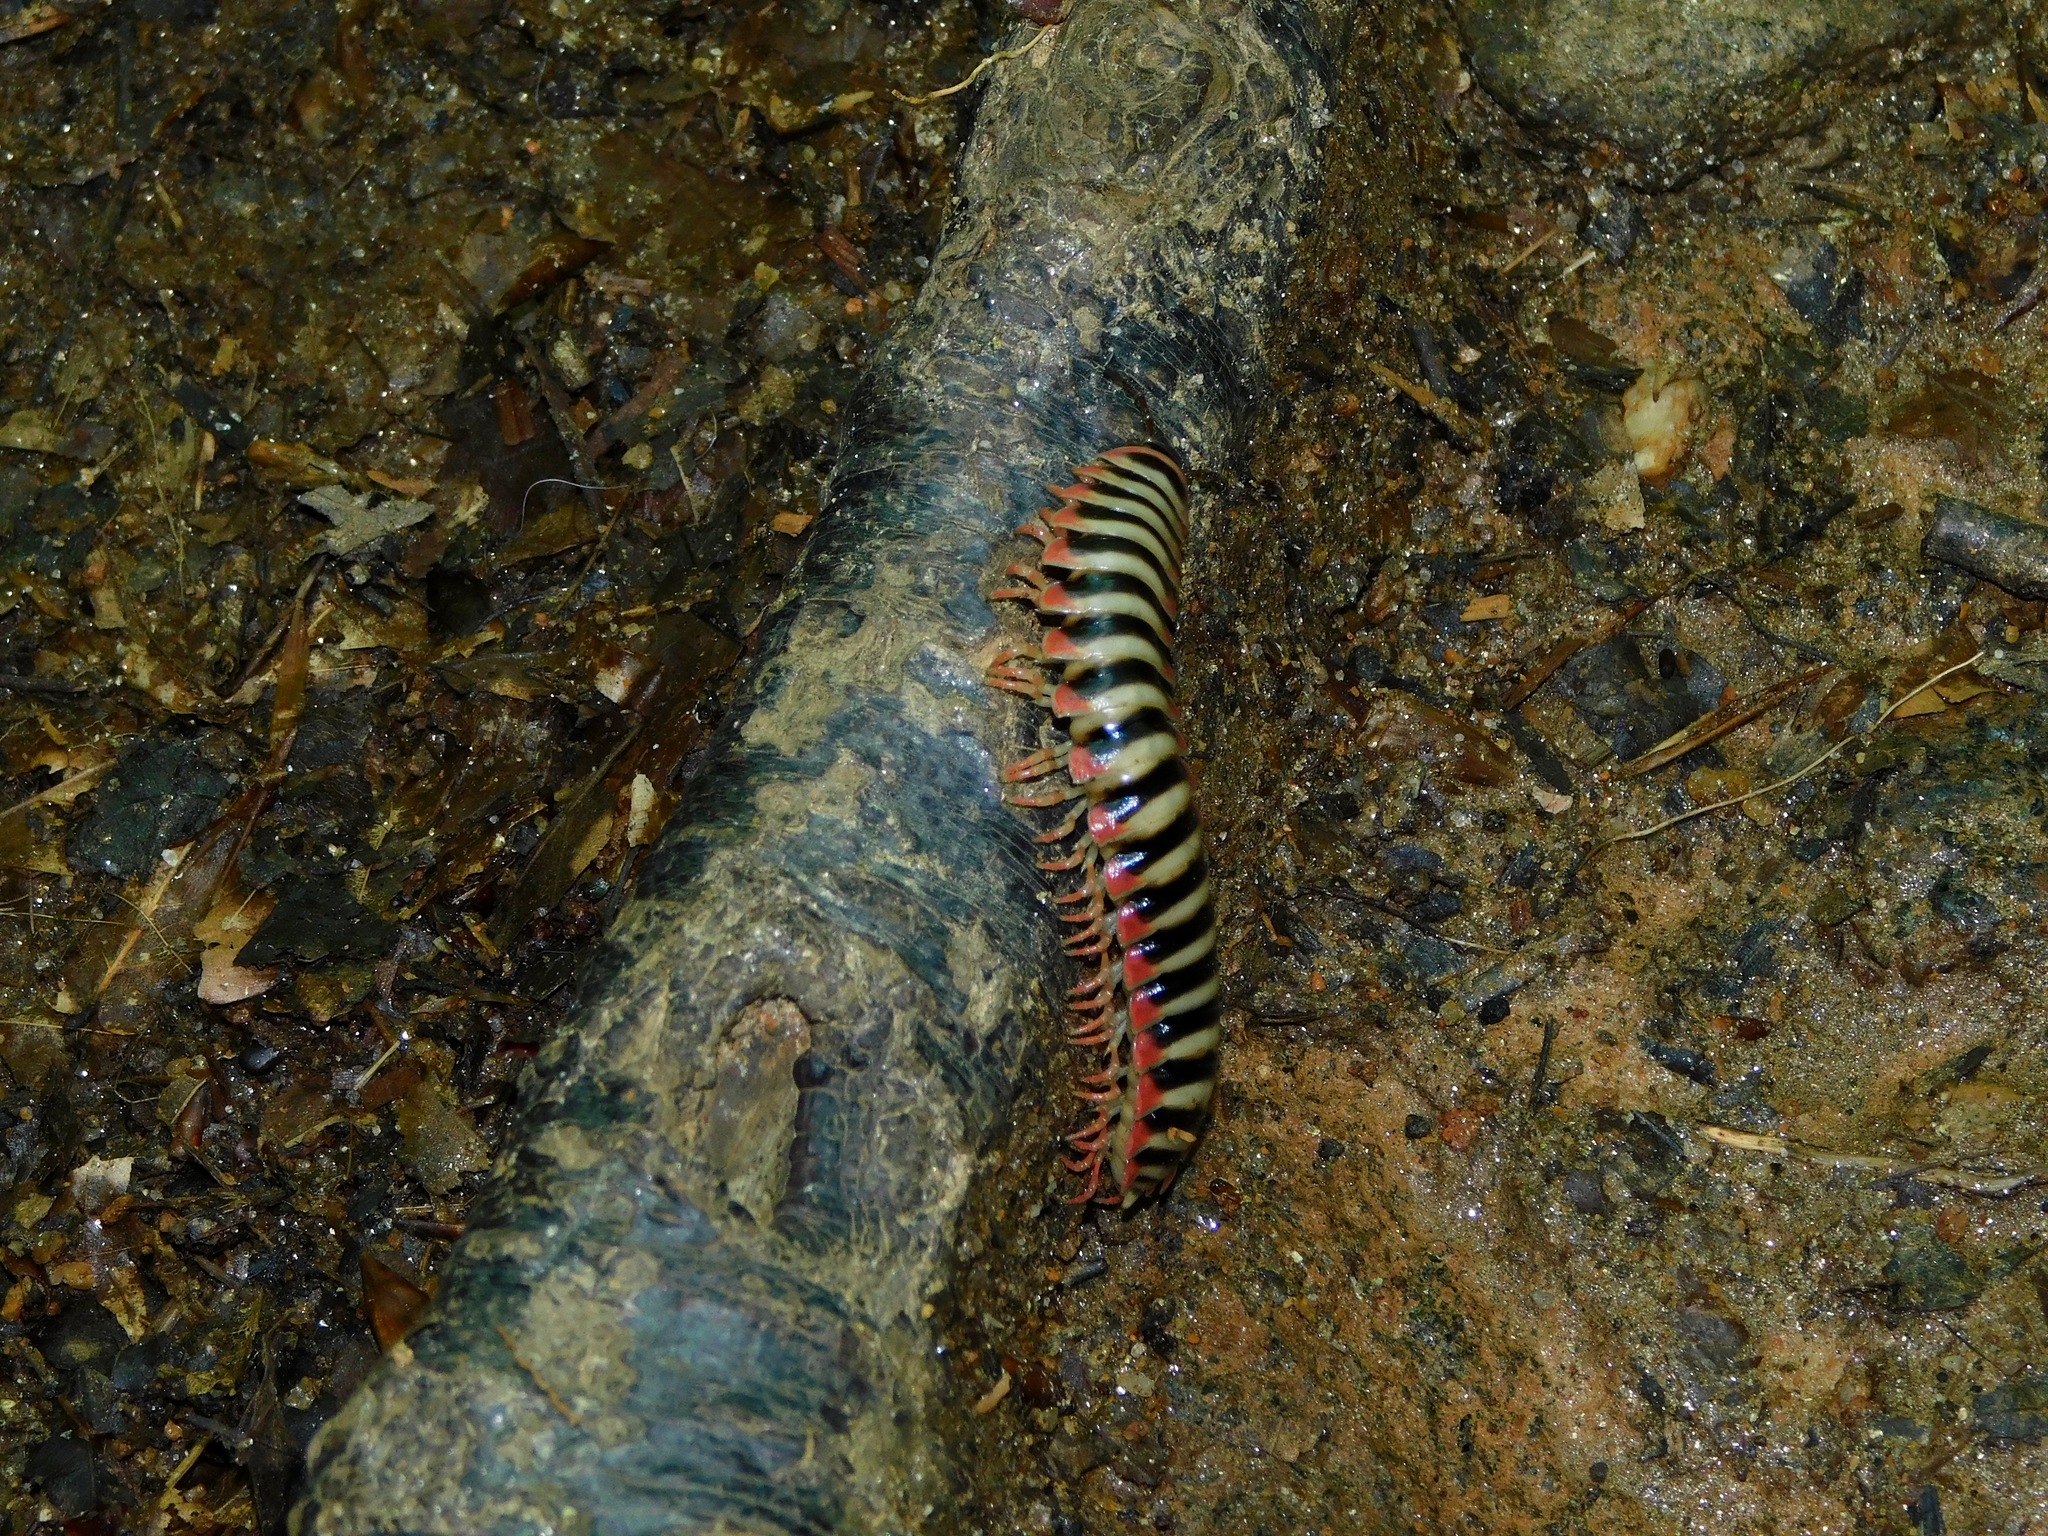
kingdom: Animalia
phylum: Arthropoda
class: Diplopoda
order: Polydesmida
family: Xystodesmidae
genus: Sigmoria
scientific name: Sigmoria nantahalae
